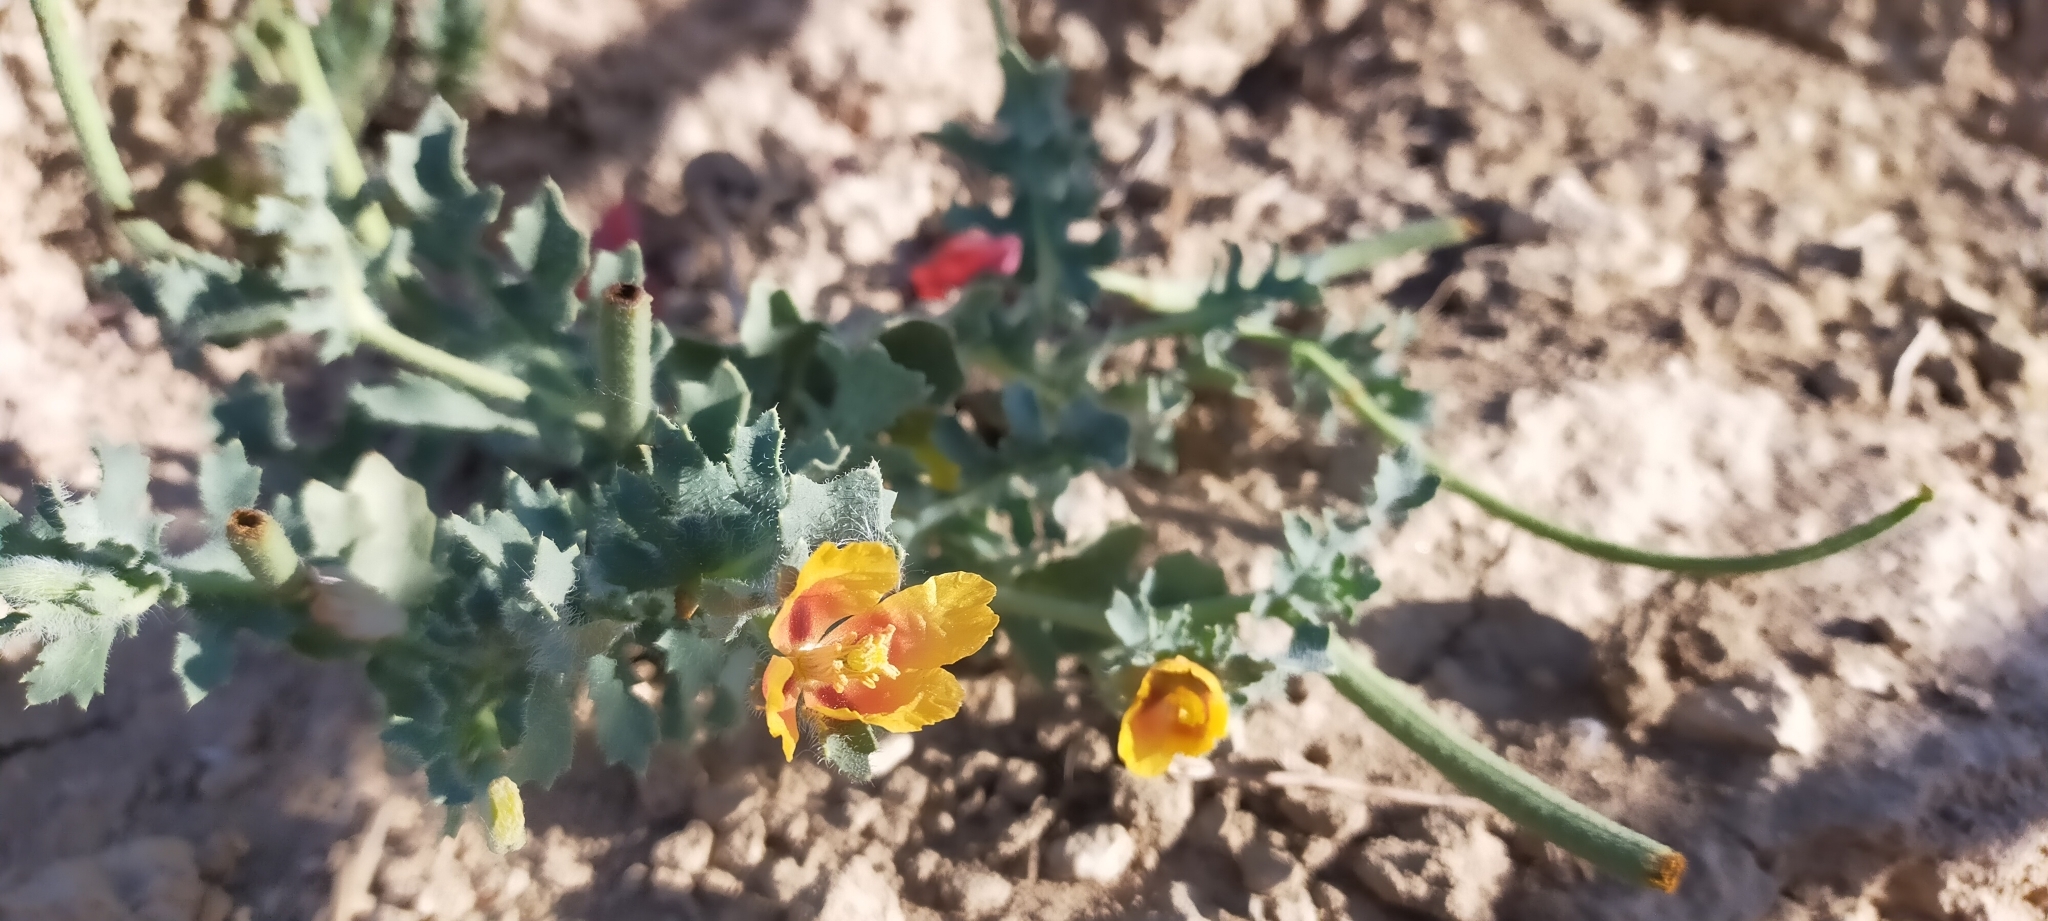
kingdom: Plantae
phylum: Tracheophyta
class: Magnoliopsida
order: Ranunculales
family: Papaveraceae
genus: Glaucium
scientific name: Glaucium corniculatum
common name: Red horned-poppy
